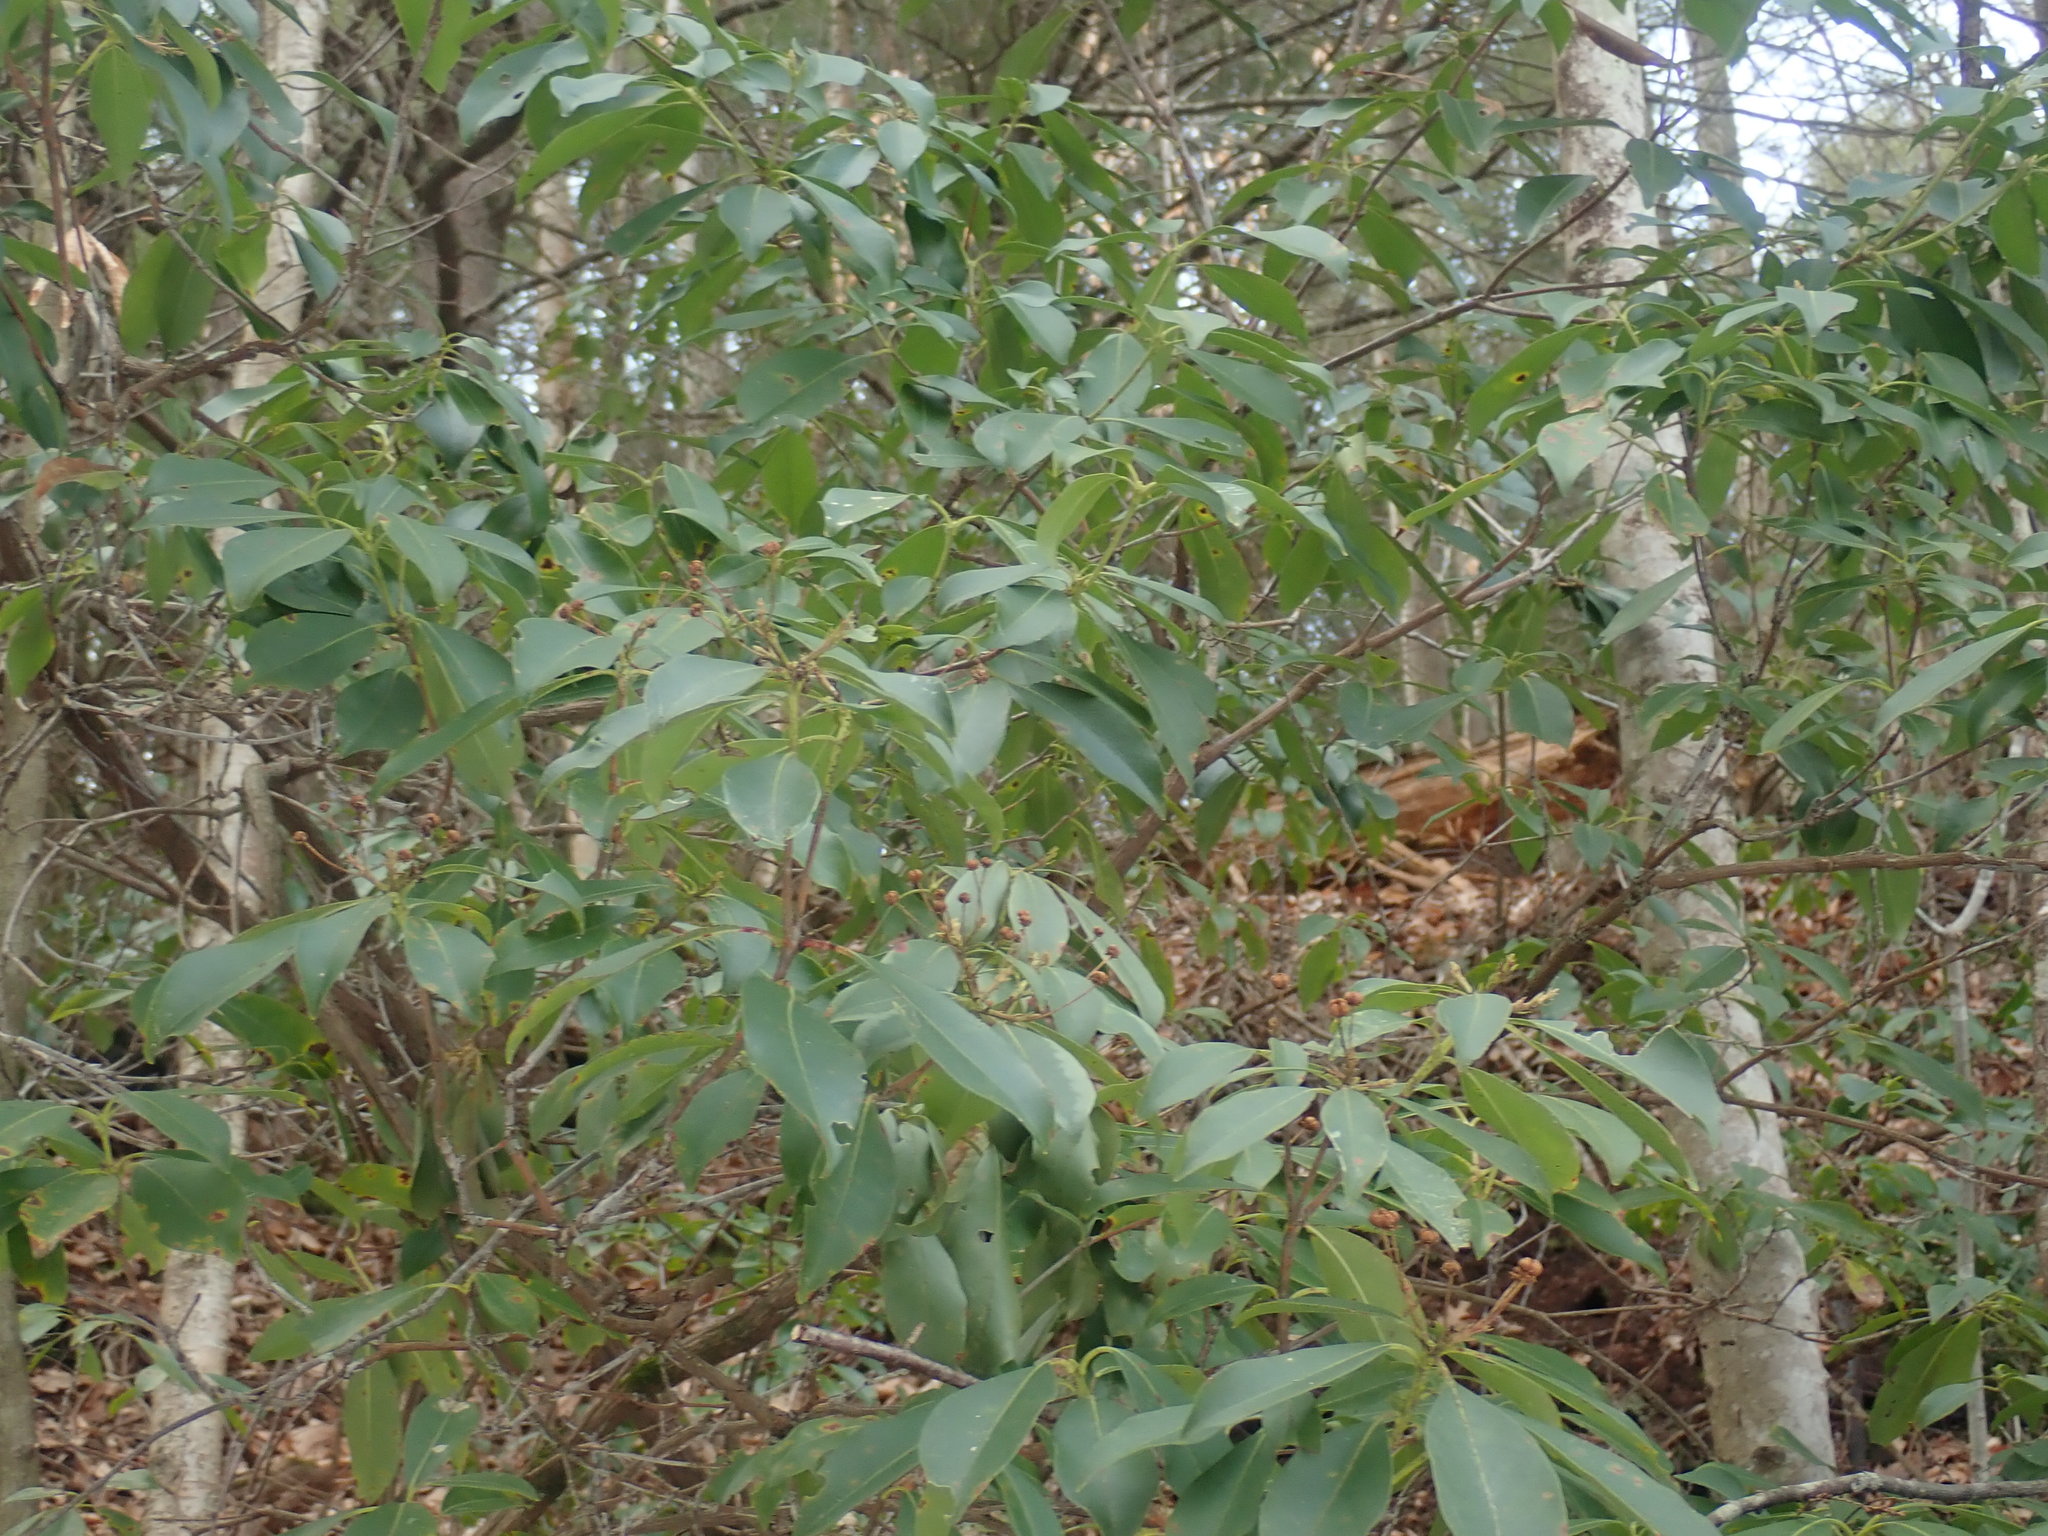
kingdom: Plantae
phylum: Tracheophyta
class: Magnoliopsida
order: Ericales
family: Ericaceae
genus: Kalmia
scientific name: Kalmia latifolia
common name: Mountain-laurel
